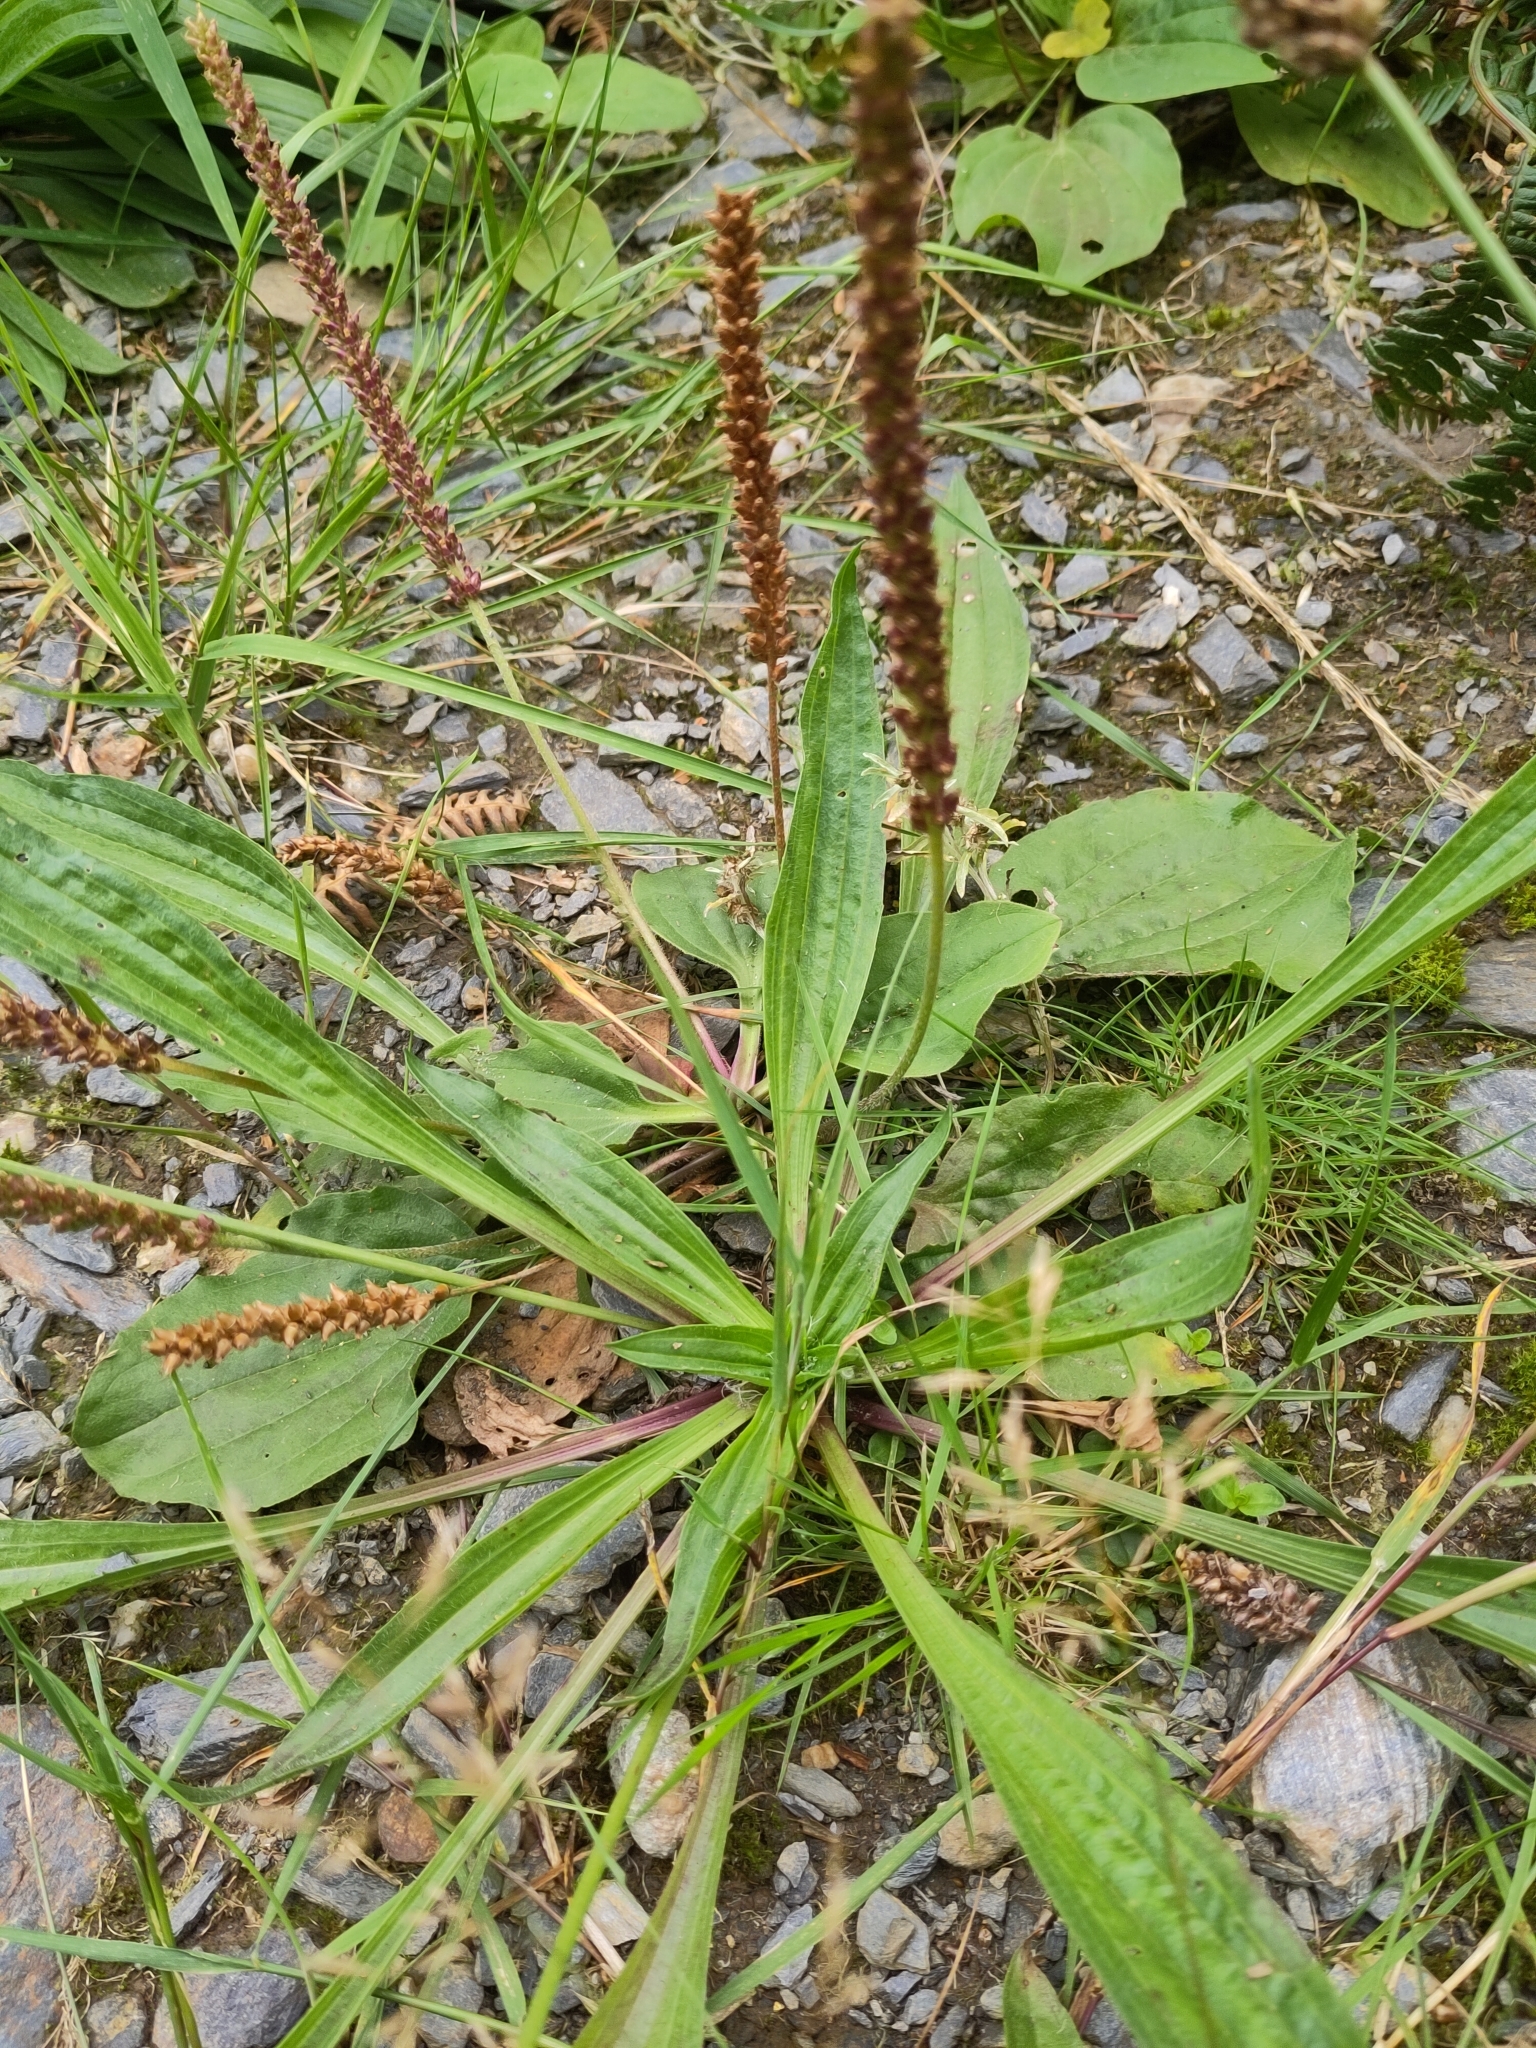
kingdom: Plantae
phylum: Tracheophyta
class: Magnoliopsida
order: Lamiales
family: Plantaginaceae
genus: Plantago
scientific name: Plantago lanceolata
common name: Ribwort plantain
